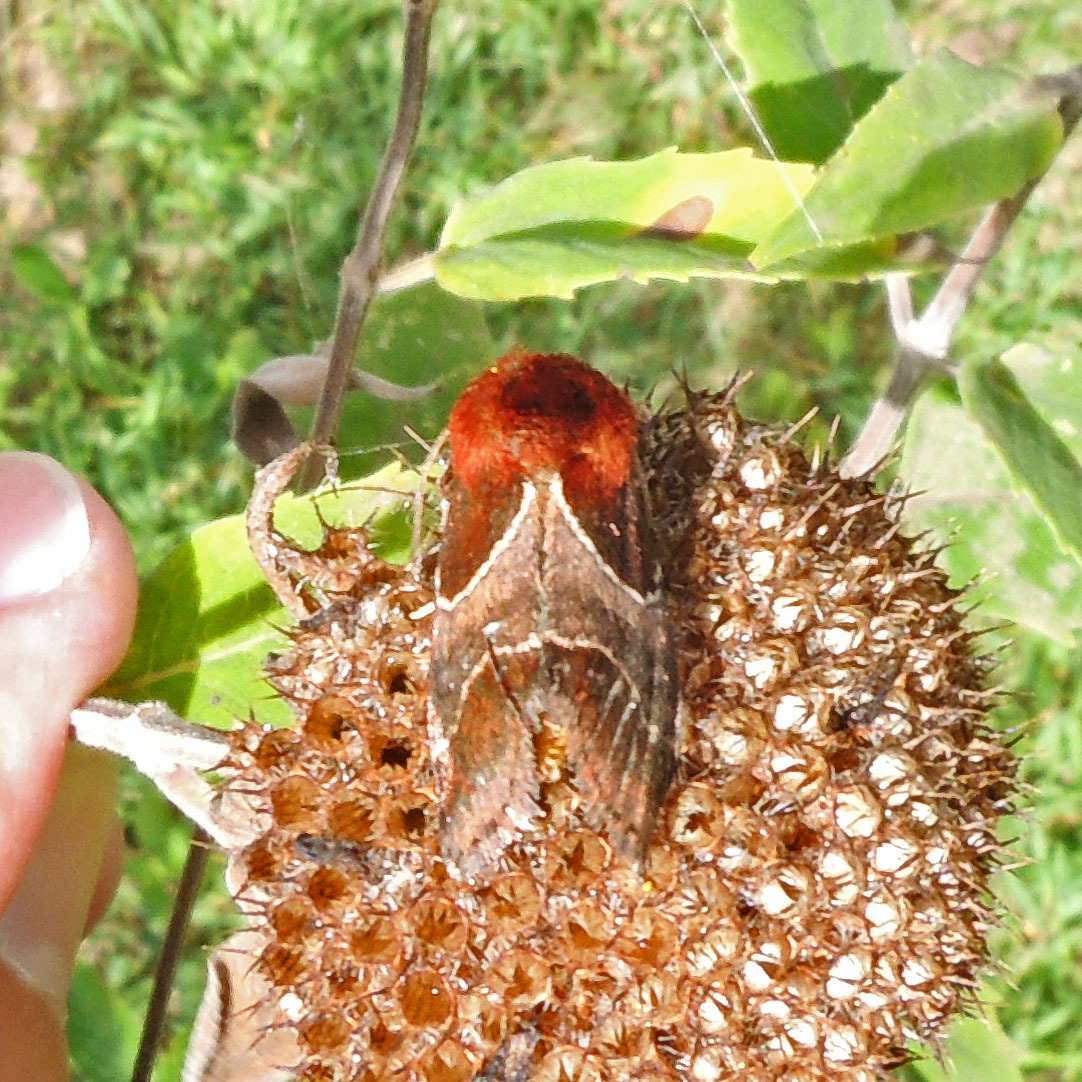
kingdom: Animalia
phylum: Arthropoda
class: Insecta
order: Lepidoptera
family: Noctuidae
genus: Schinia
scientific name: Schinia arcigera
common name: Arcigera flower moth
